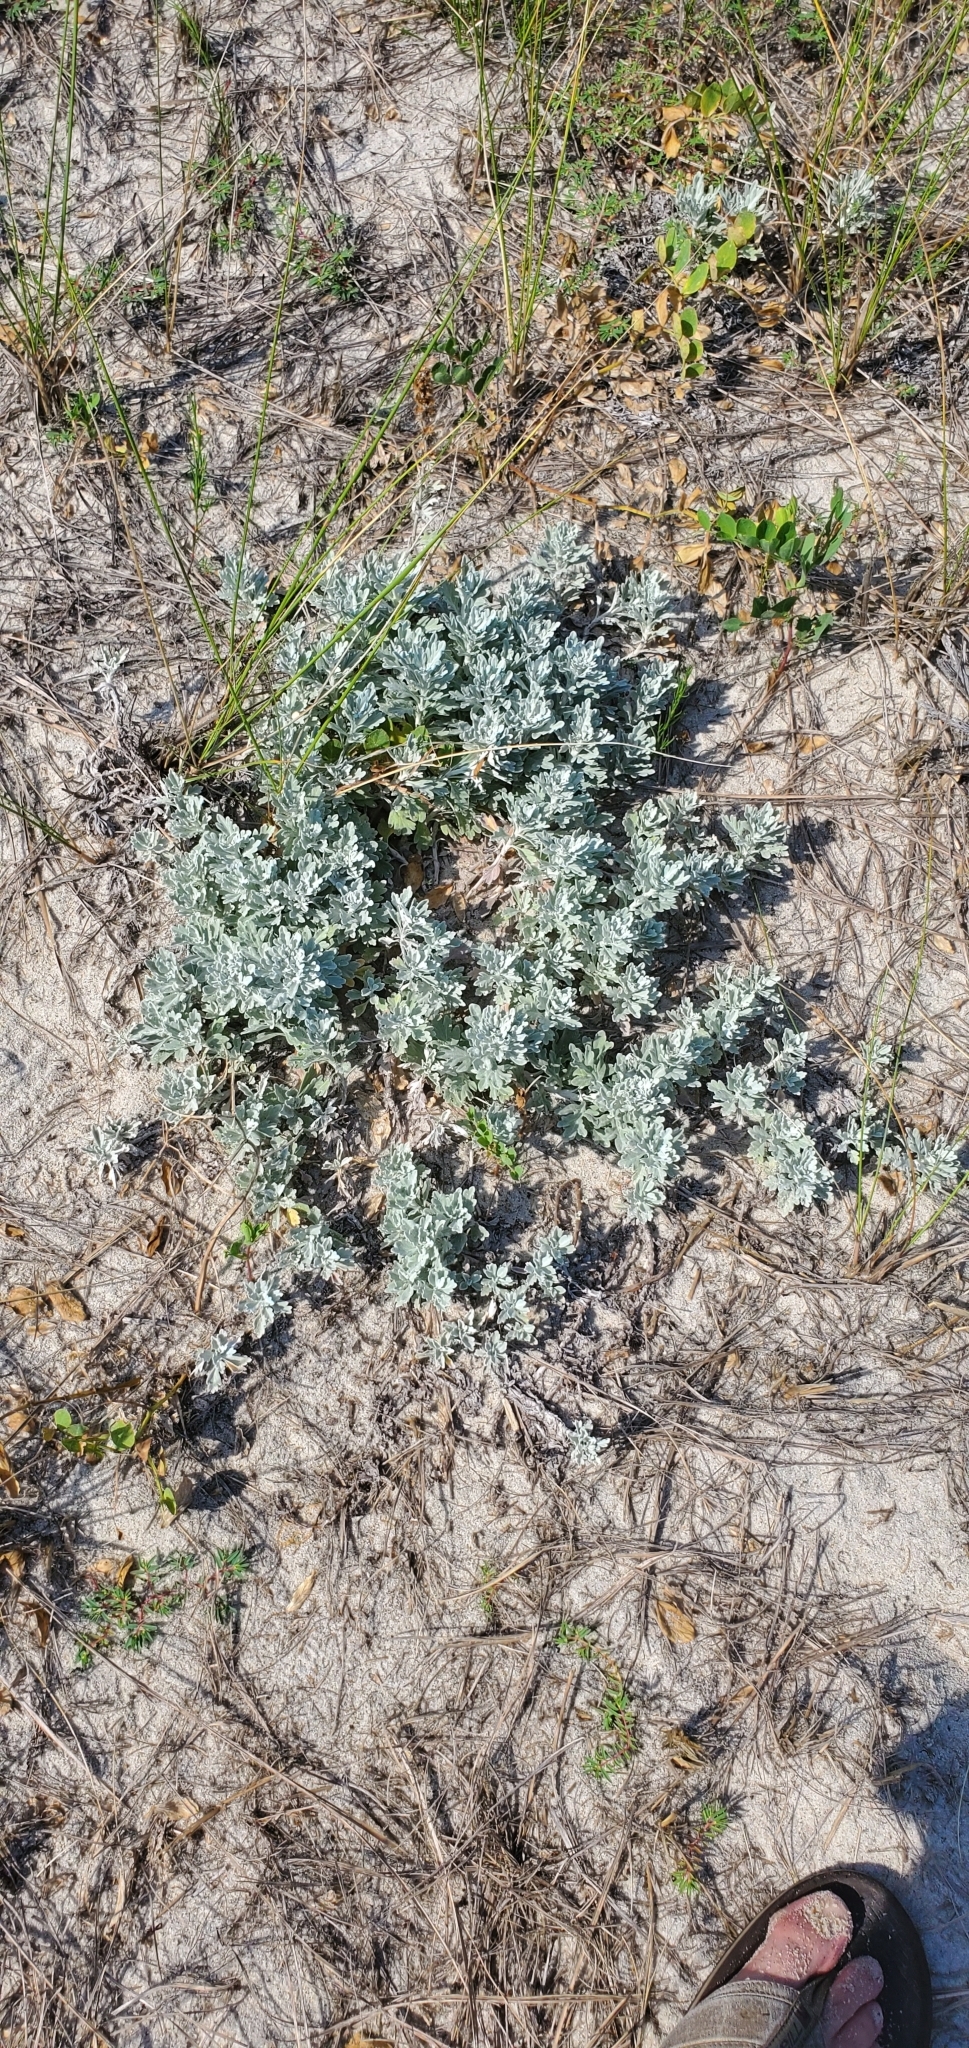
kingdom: Plantae
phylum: Tracheophyta
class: Magnoliopsida
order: Asterales
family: Asteraceae
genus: Artemisia
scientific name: Artemisia stelleriana
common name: Beach wormwood
